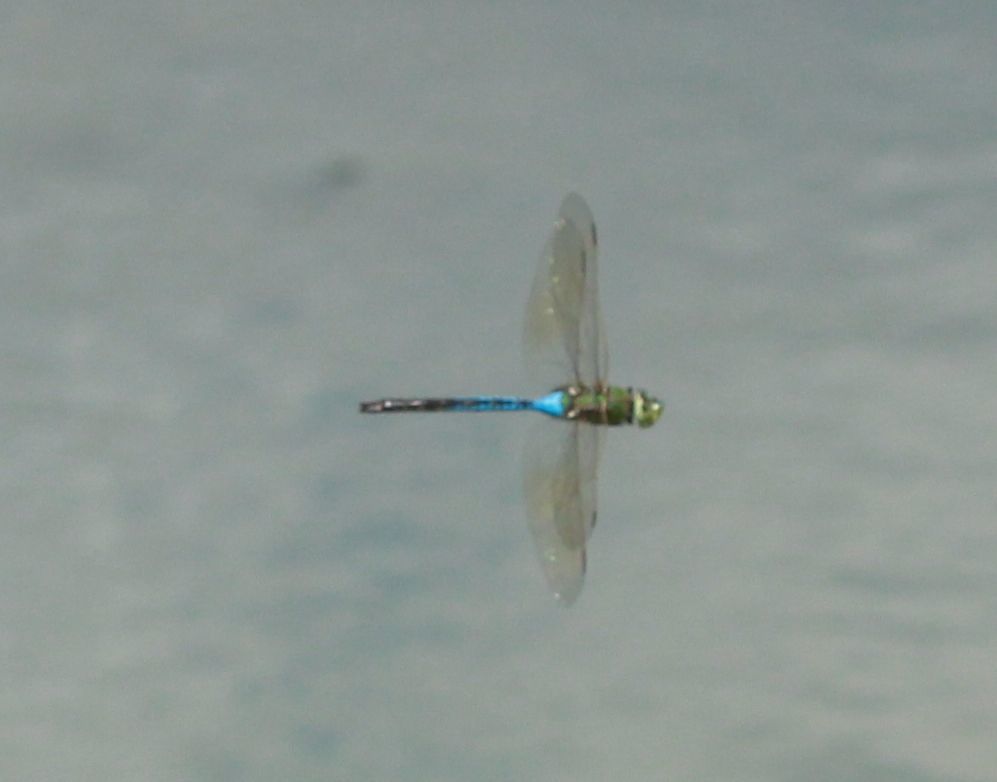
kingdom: Animalia
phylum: Arthropoda
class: Insecta
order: Odonata
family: Aeshnidae
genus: Anax
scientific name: Anax junius
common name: Common green darner
